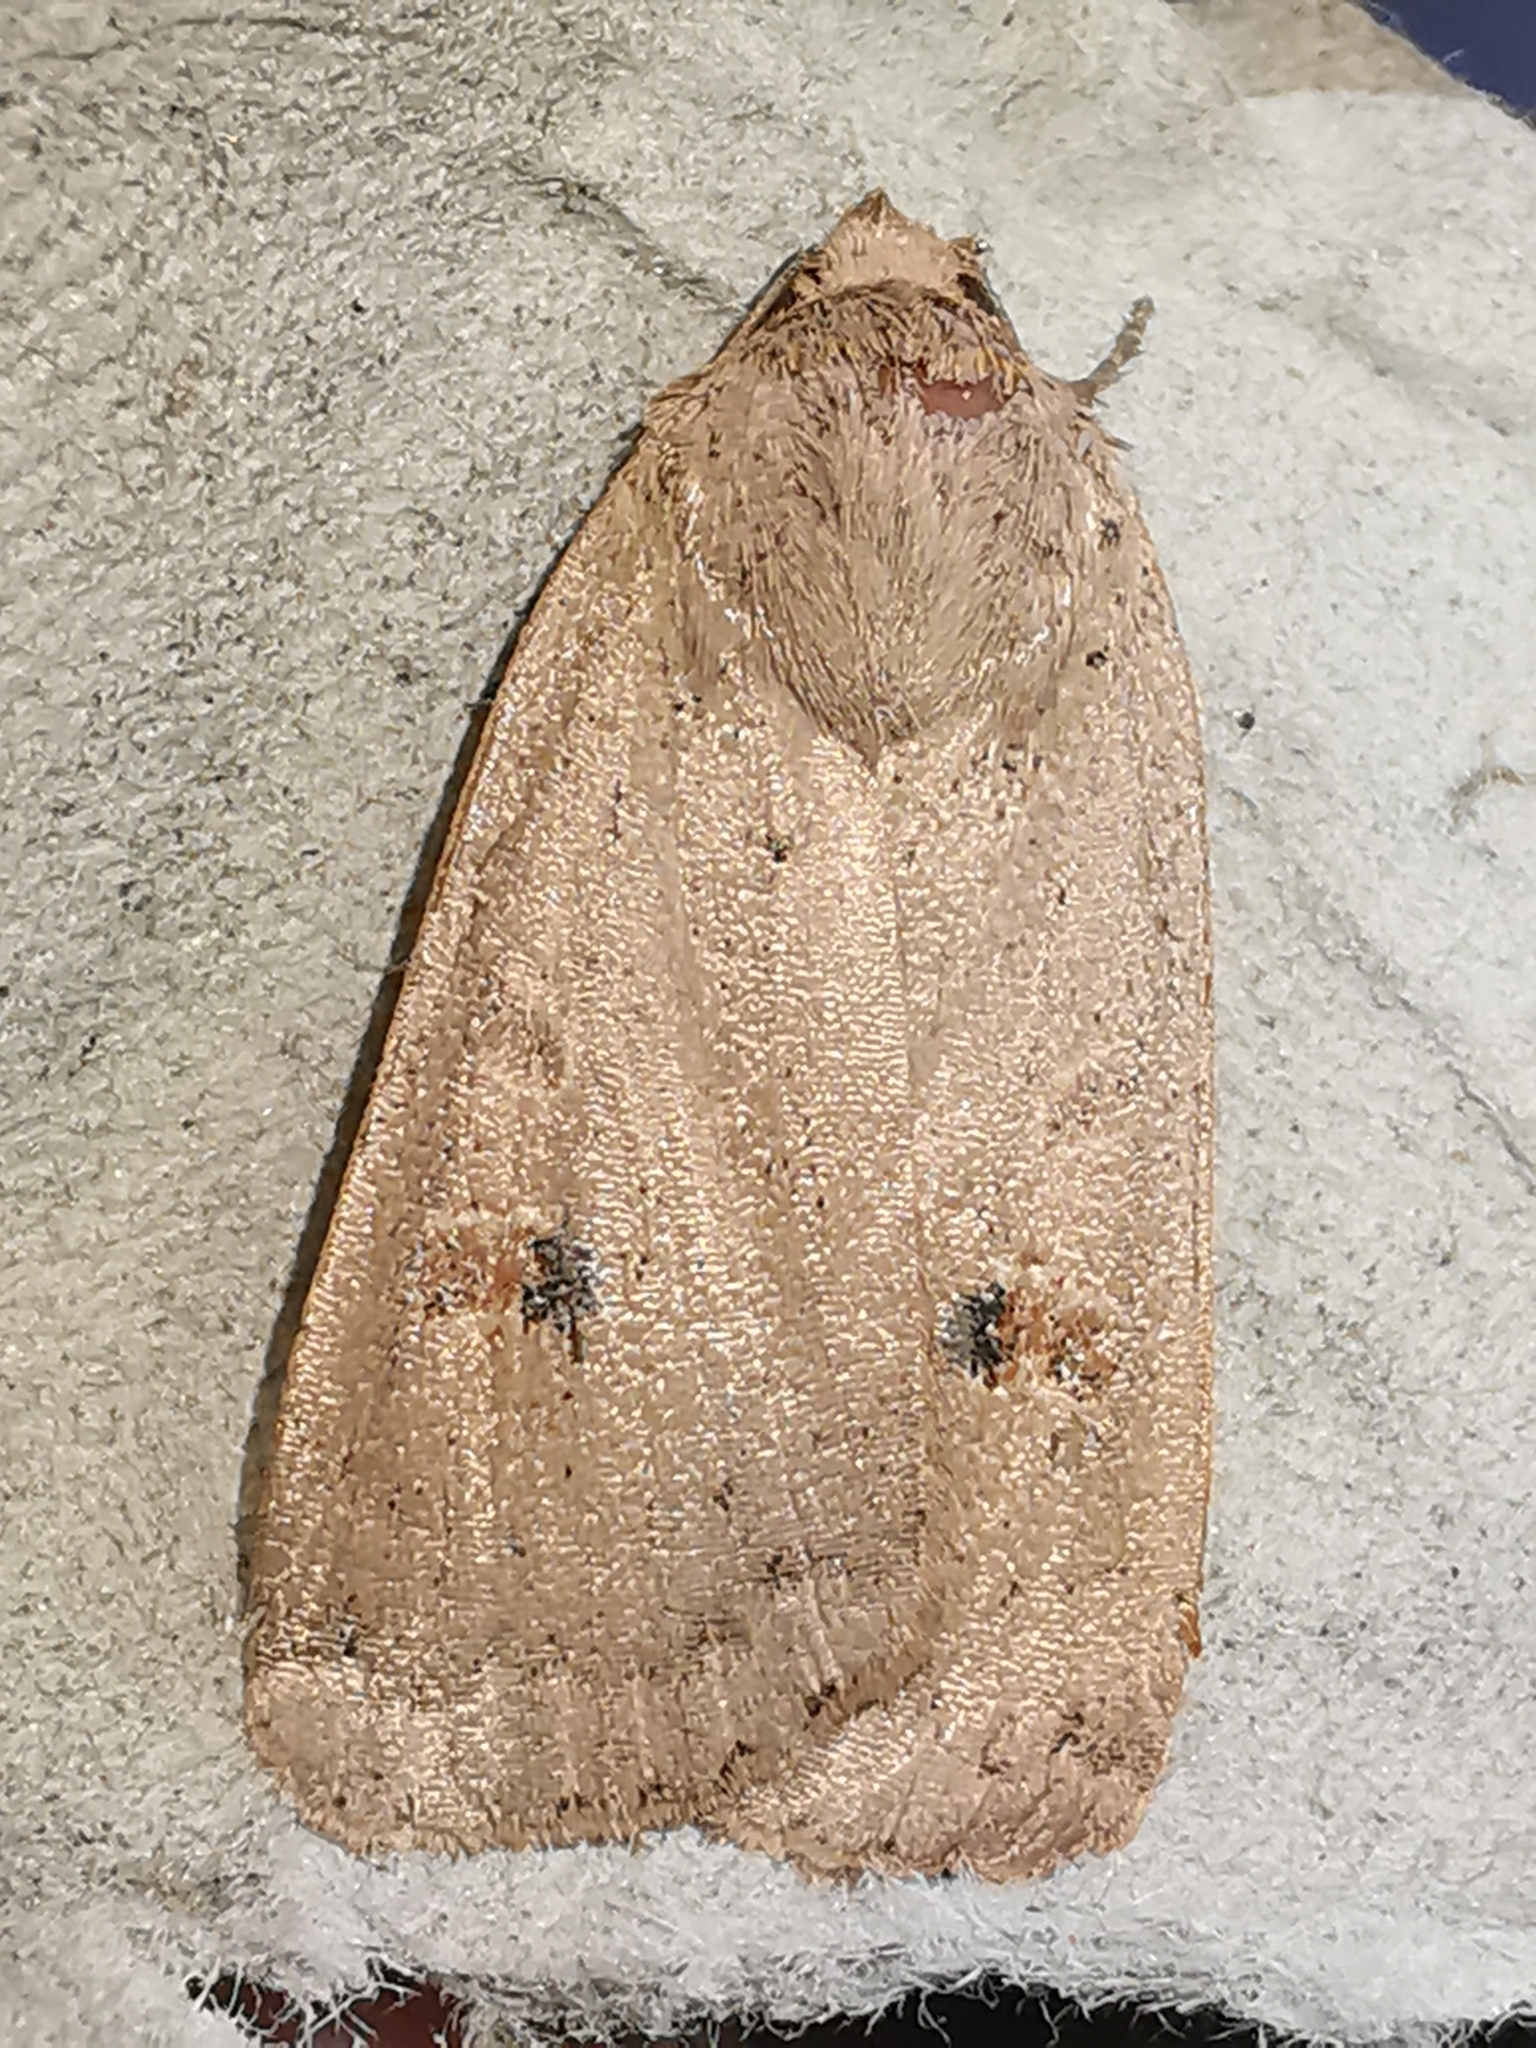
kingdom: Animalia
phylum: Arthropoda
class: Insecta
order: Lepidoptera
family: Noctuidae
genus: Noctua
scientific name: Noctua comes
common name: Lesser yellow underwing
